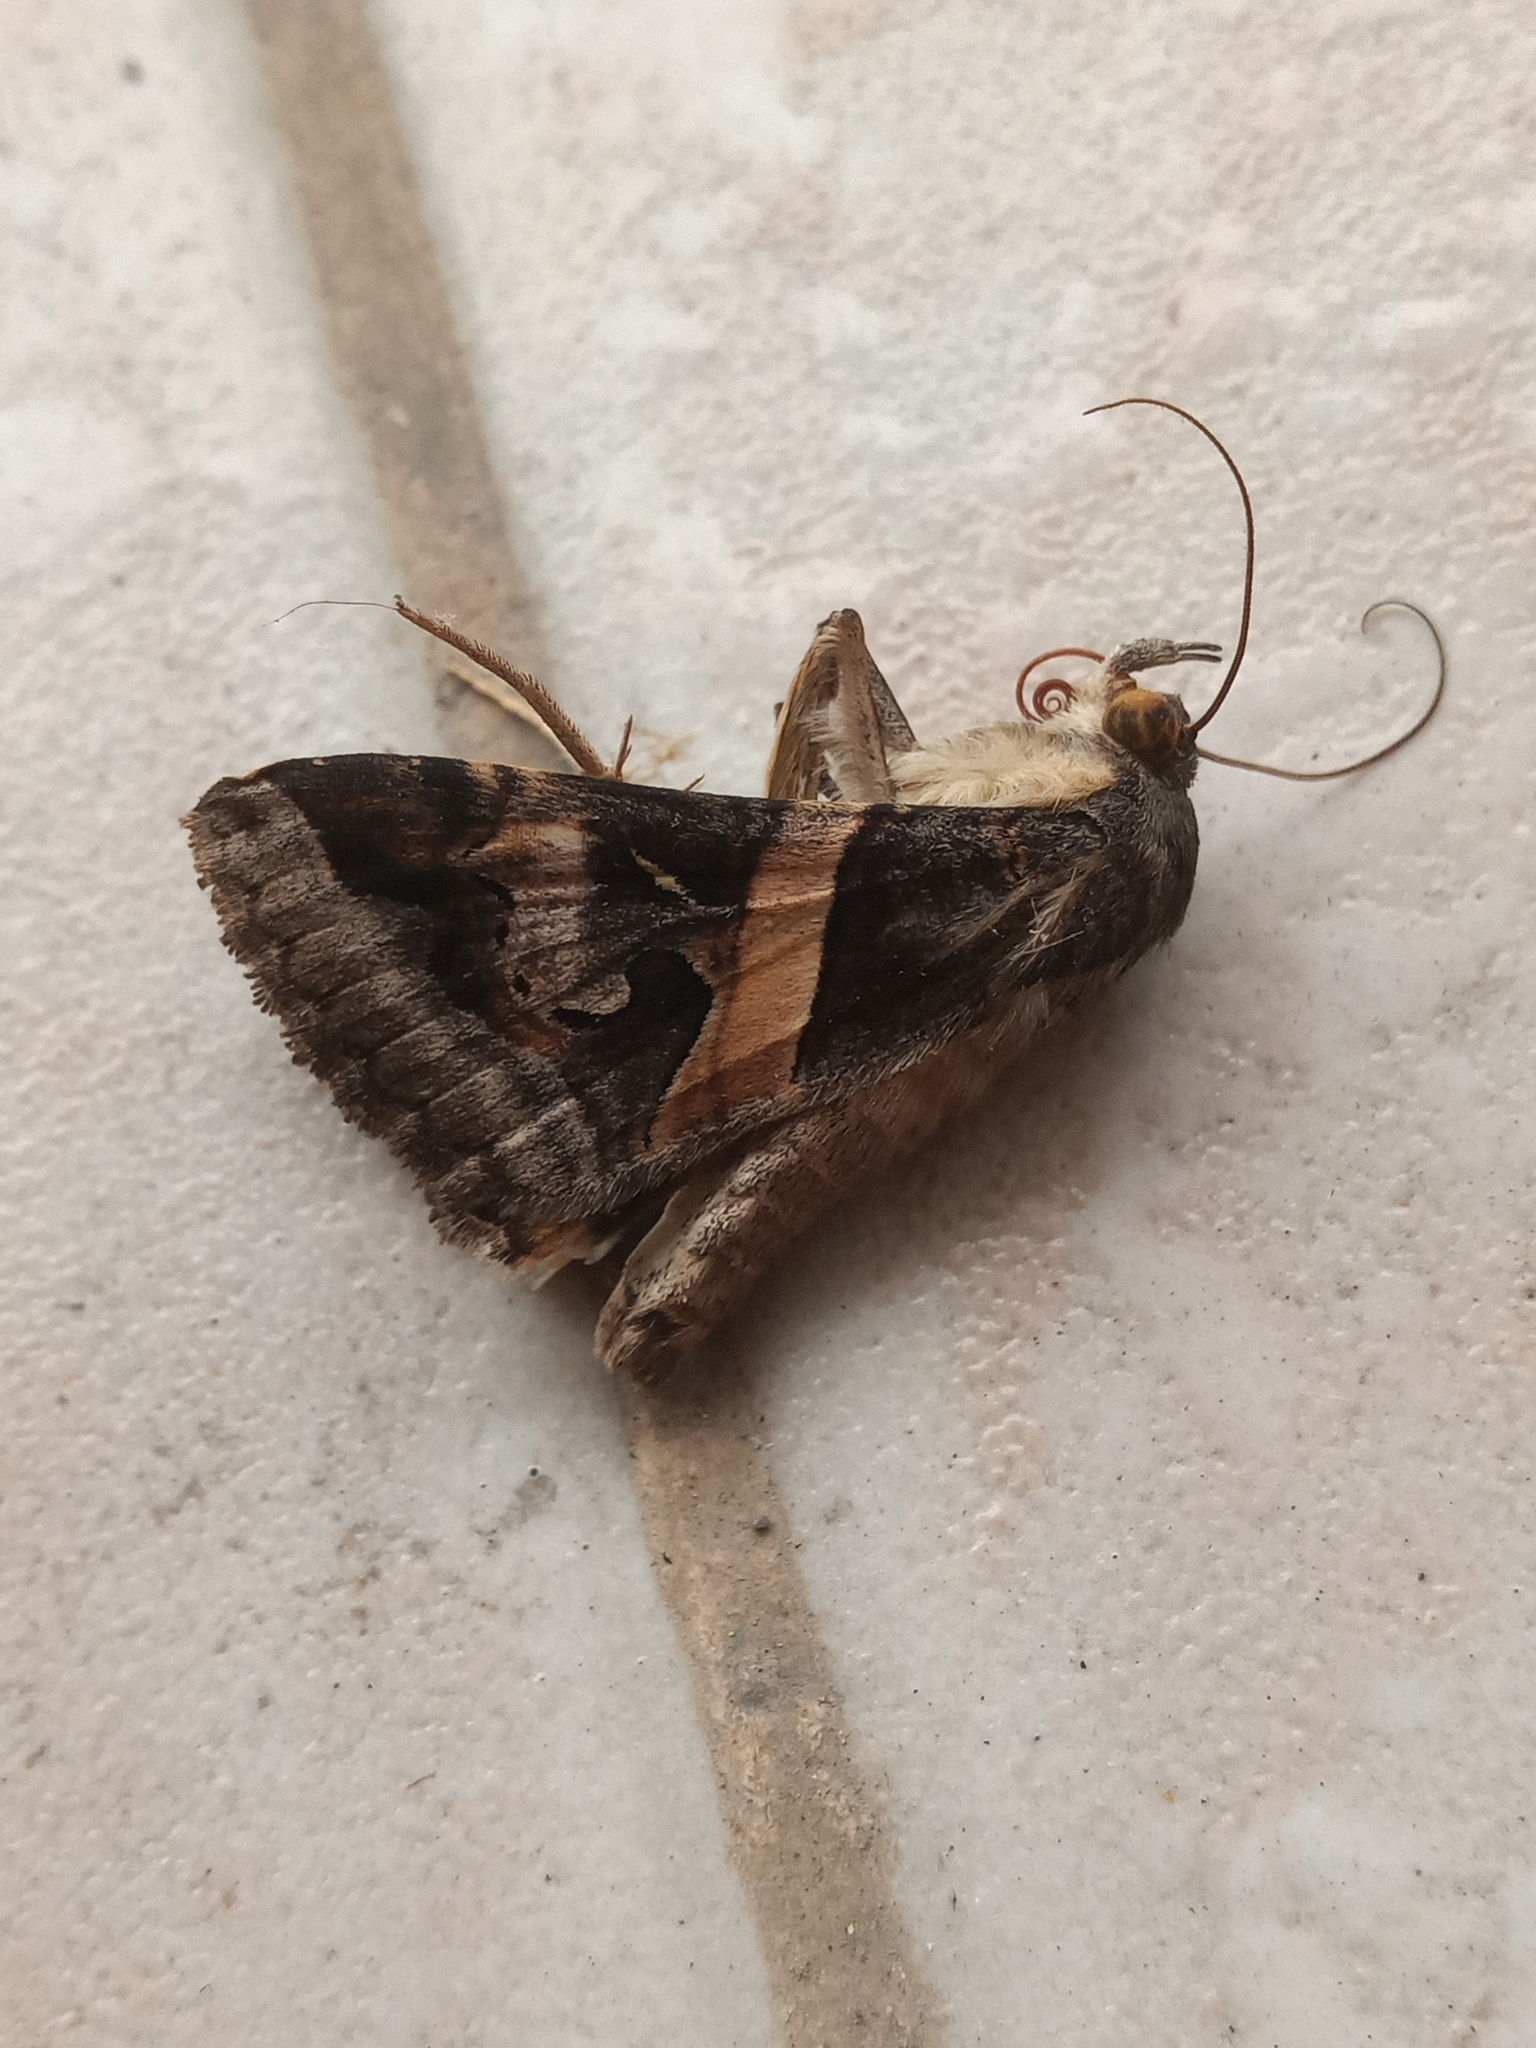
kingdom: Animalia
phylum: Arthropoda
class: Insecta
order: Lepidoptera
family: Erebidae
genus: Melipotis
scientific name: Melipotis indomita
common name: Moth
